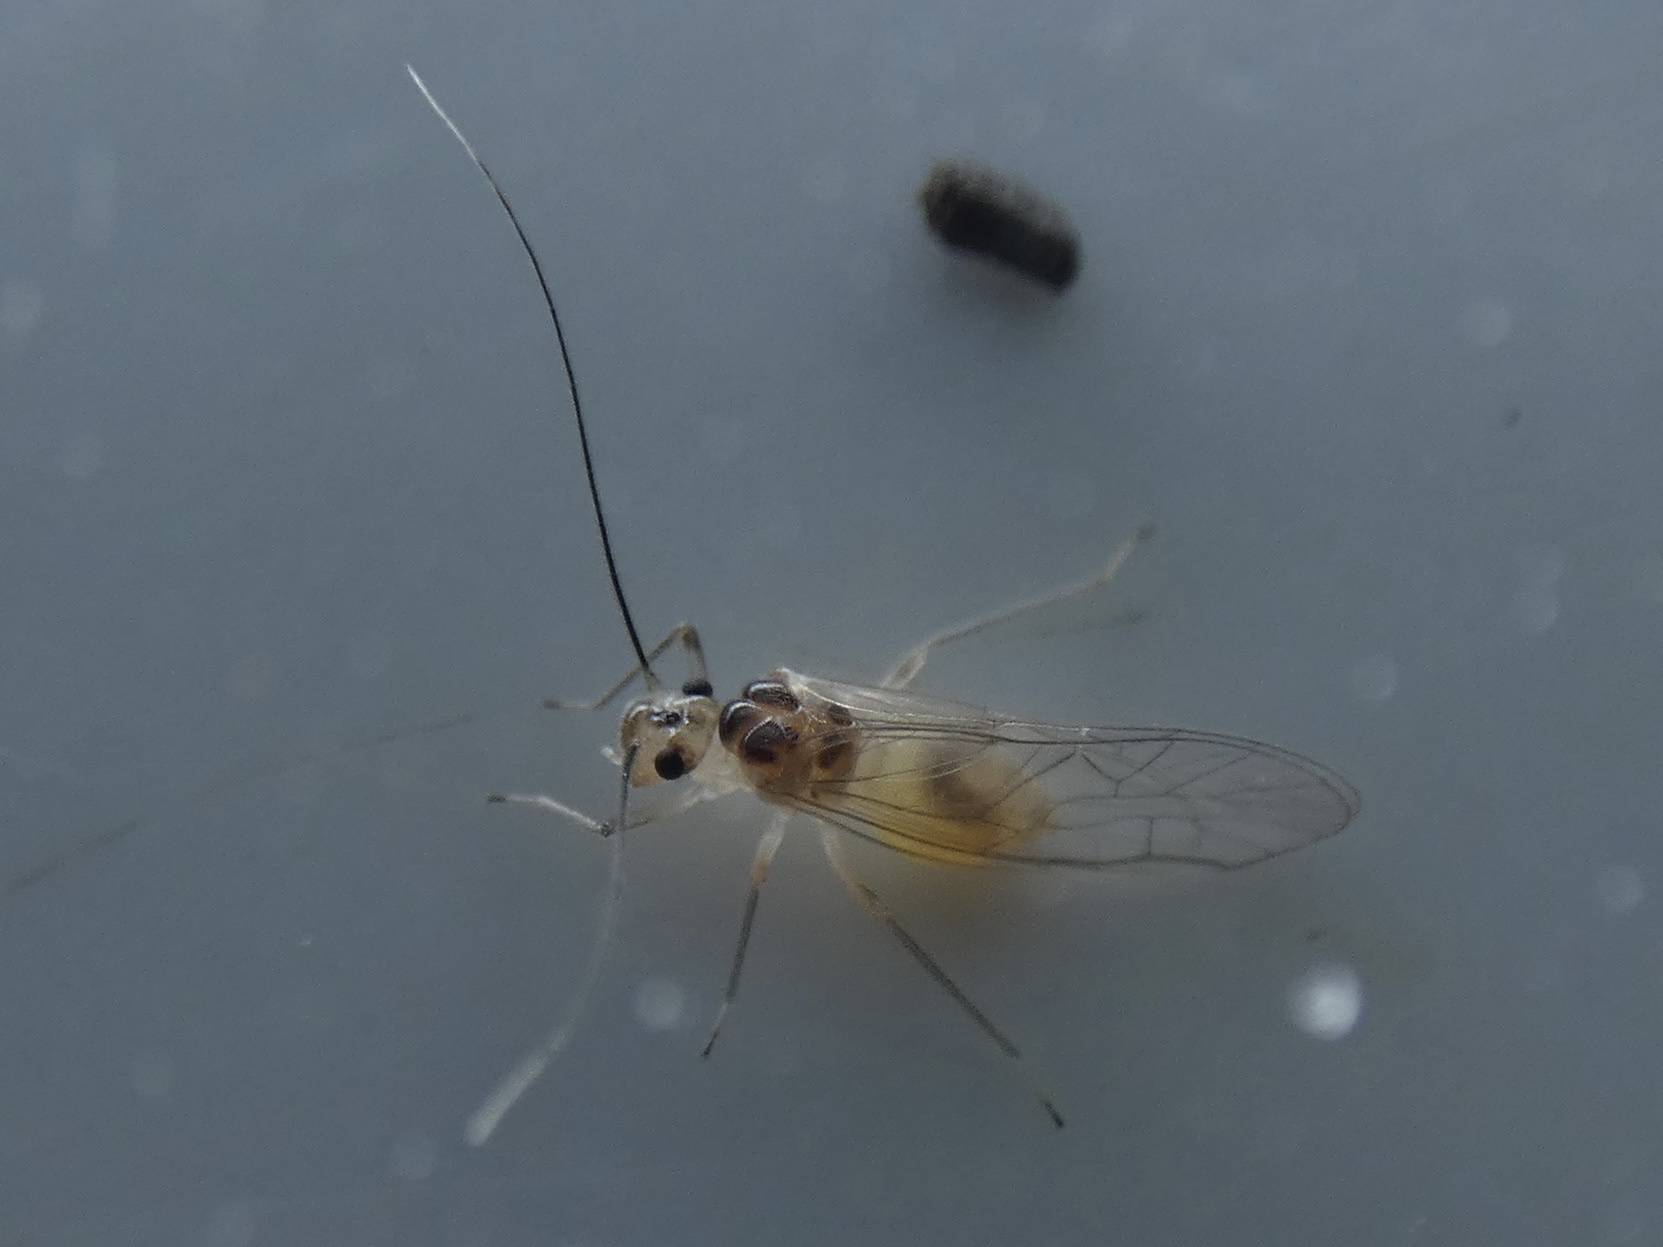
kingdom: Animalia
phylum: Arthropoda
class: Insecta
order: Psocodea
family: Stenopsocidae
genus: Stenopsocus
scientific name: Stenopsocus immaculatus
